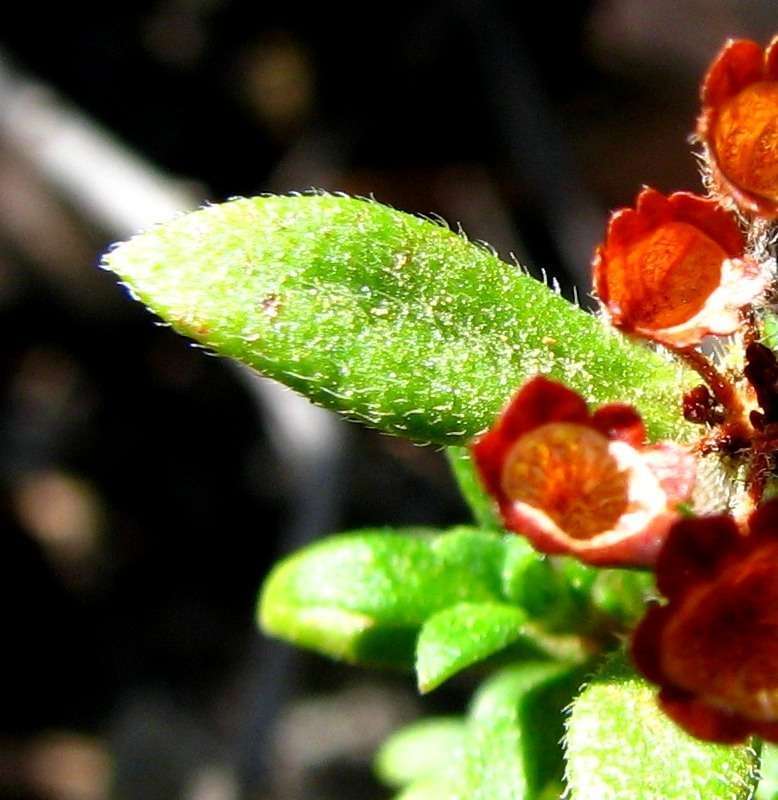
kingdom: Plantae
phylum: Tracheophyta
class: Magnoliopsida
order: Gentianales
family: Rubiaceae
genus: Pomax
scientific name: Pomax umbellata
